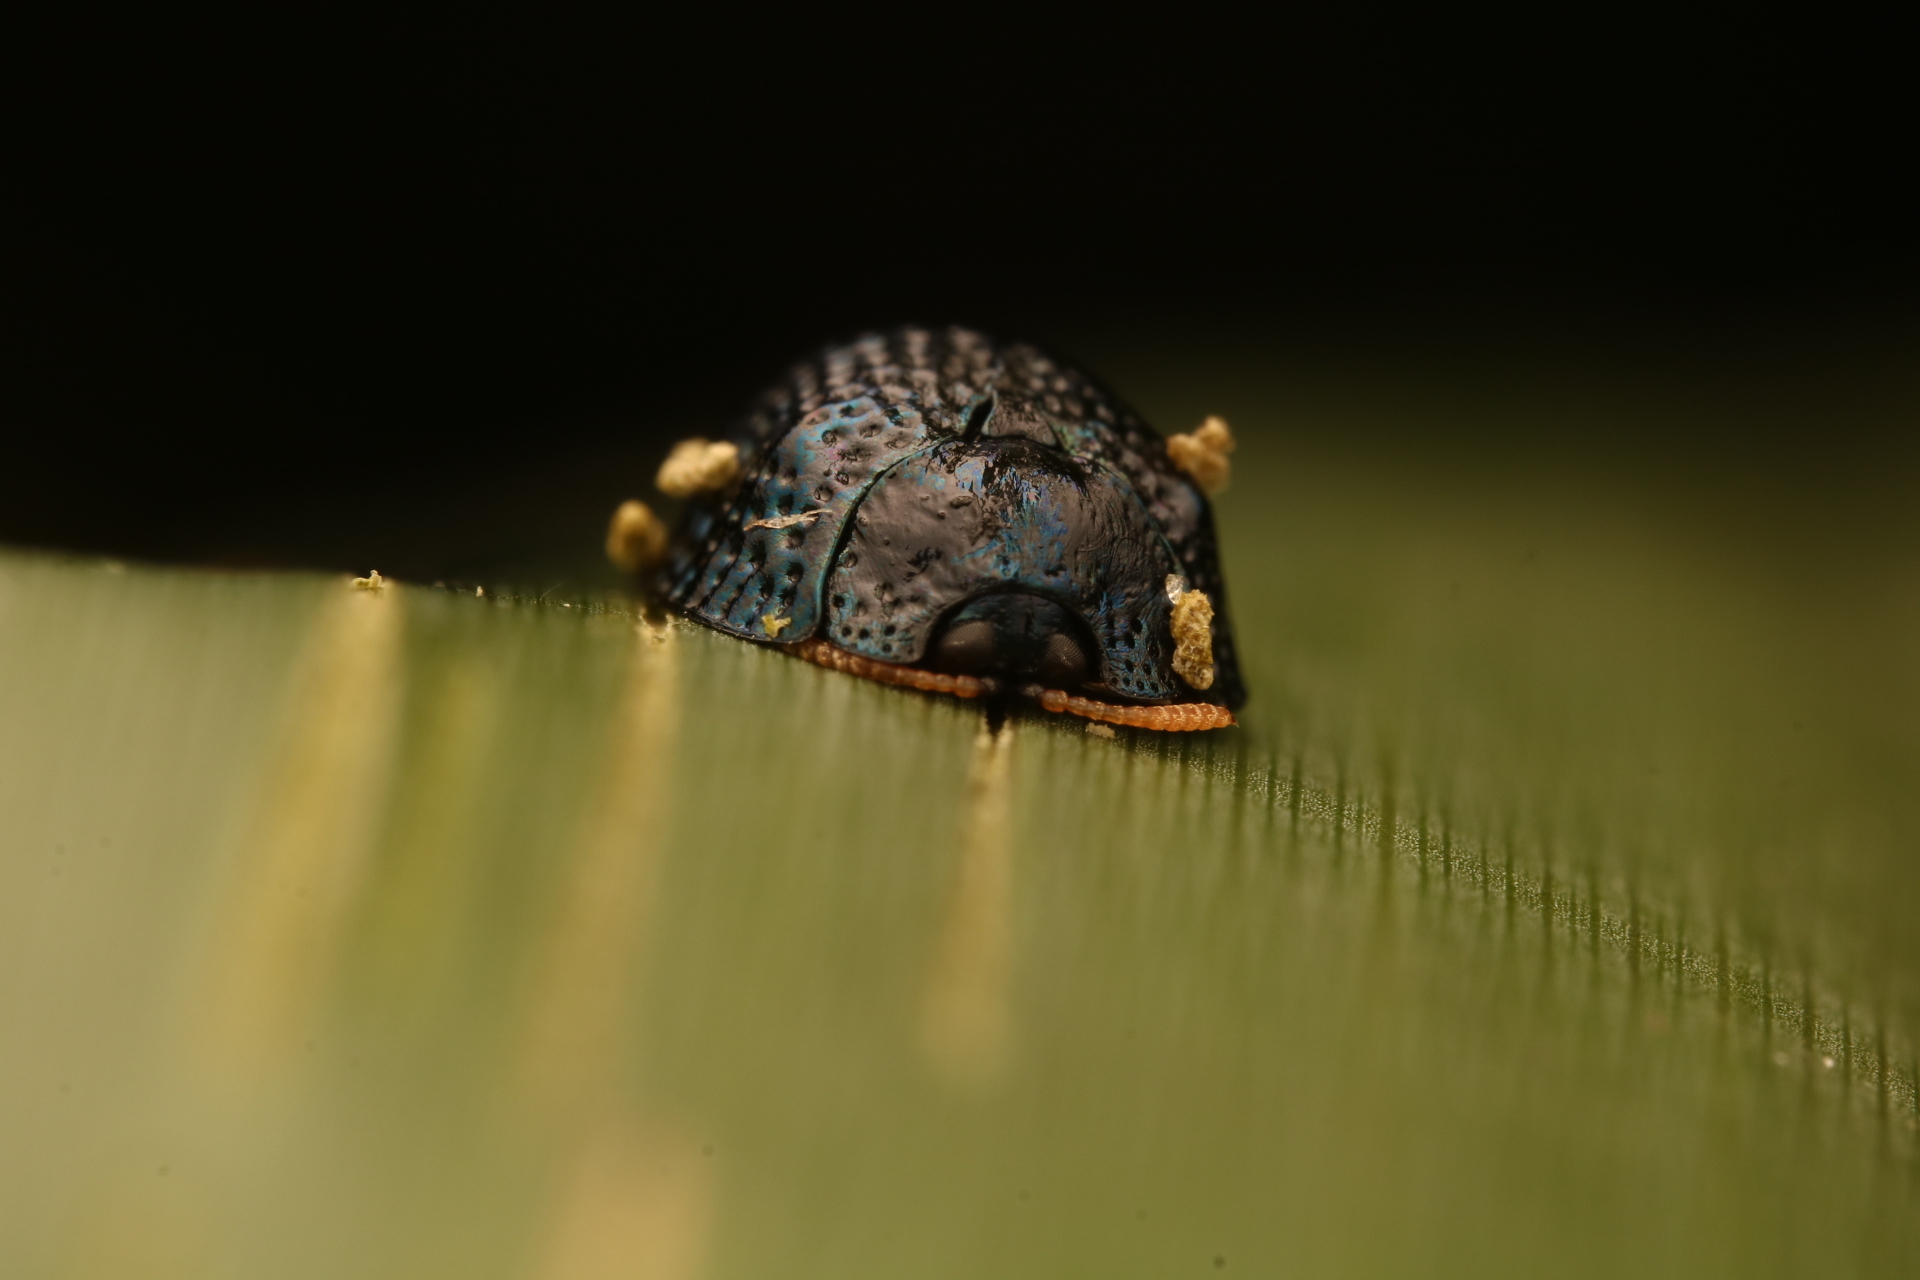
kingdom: Animalia
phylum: Arthropoda
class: Insecta
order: Coleoptera
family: Chrysomelidae
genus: Hemisphaerota
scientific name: Hemisphaerota cyanea
